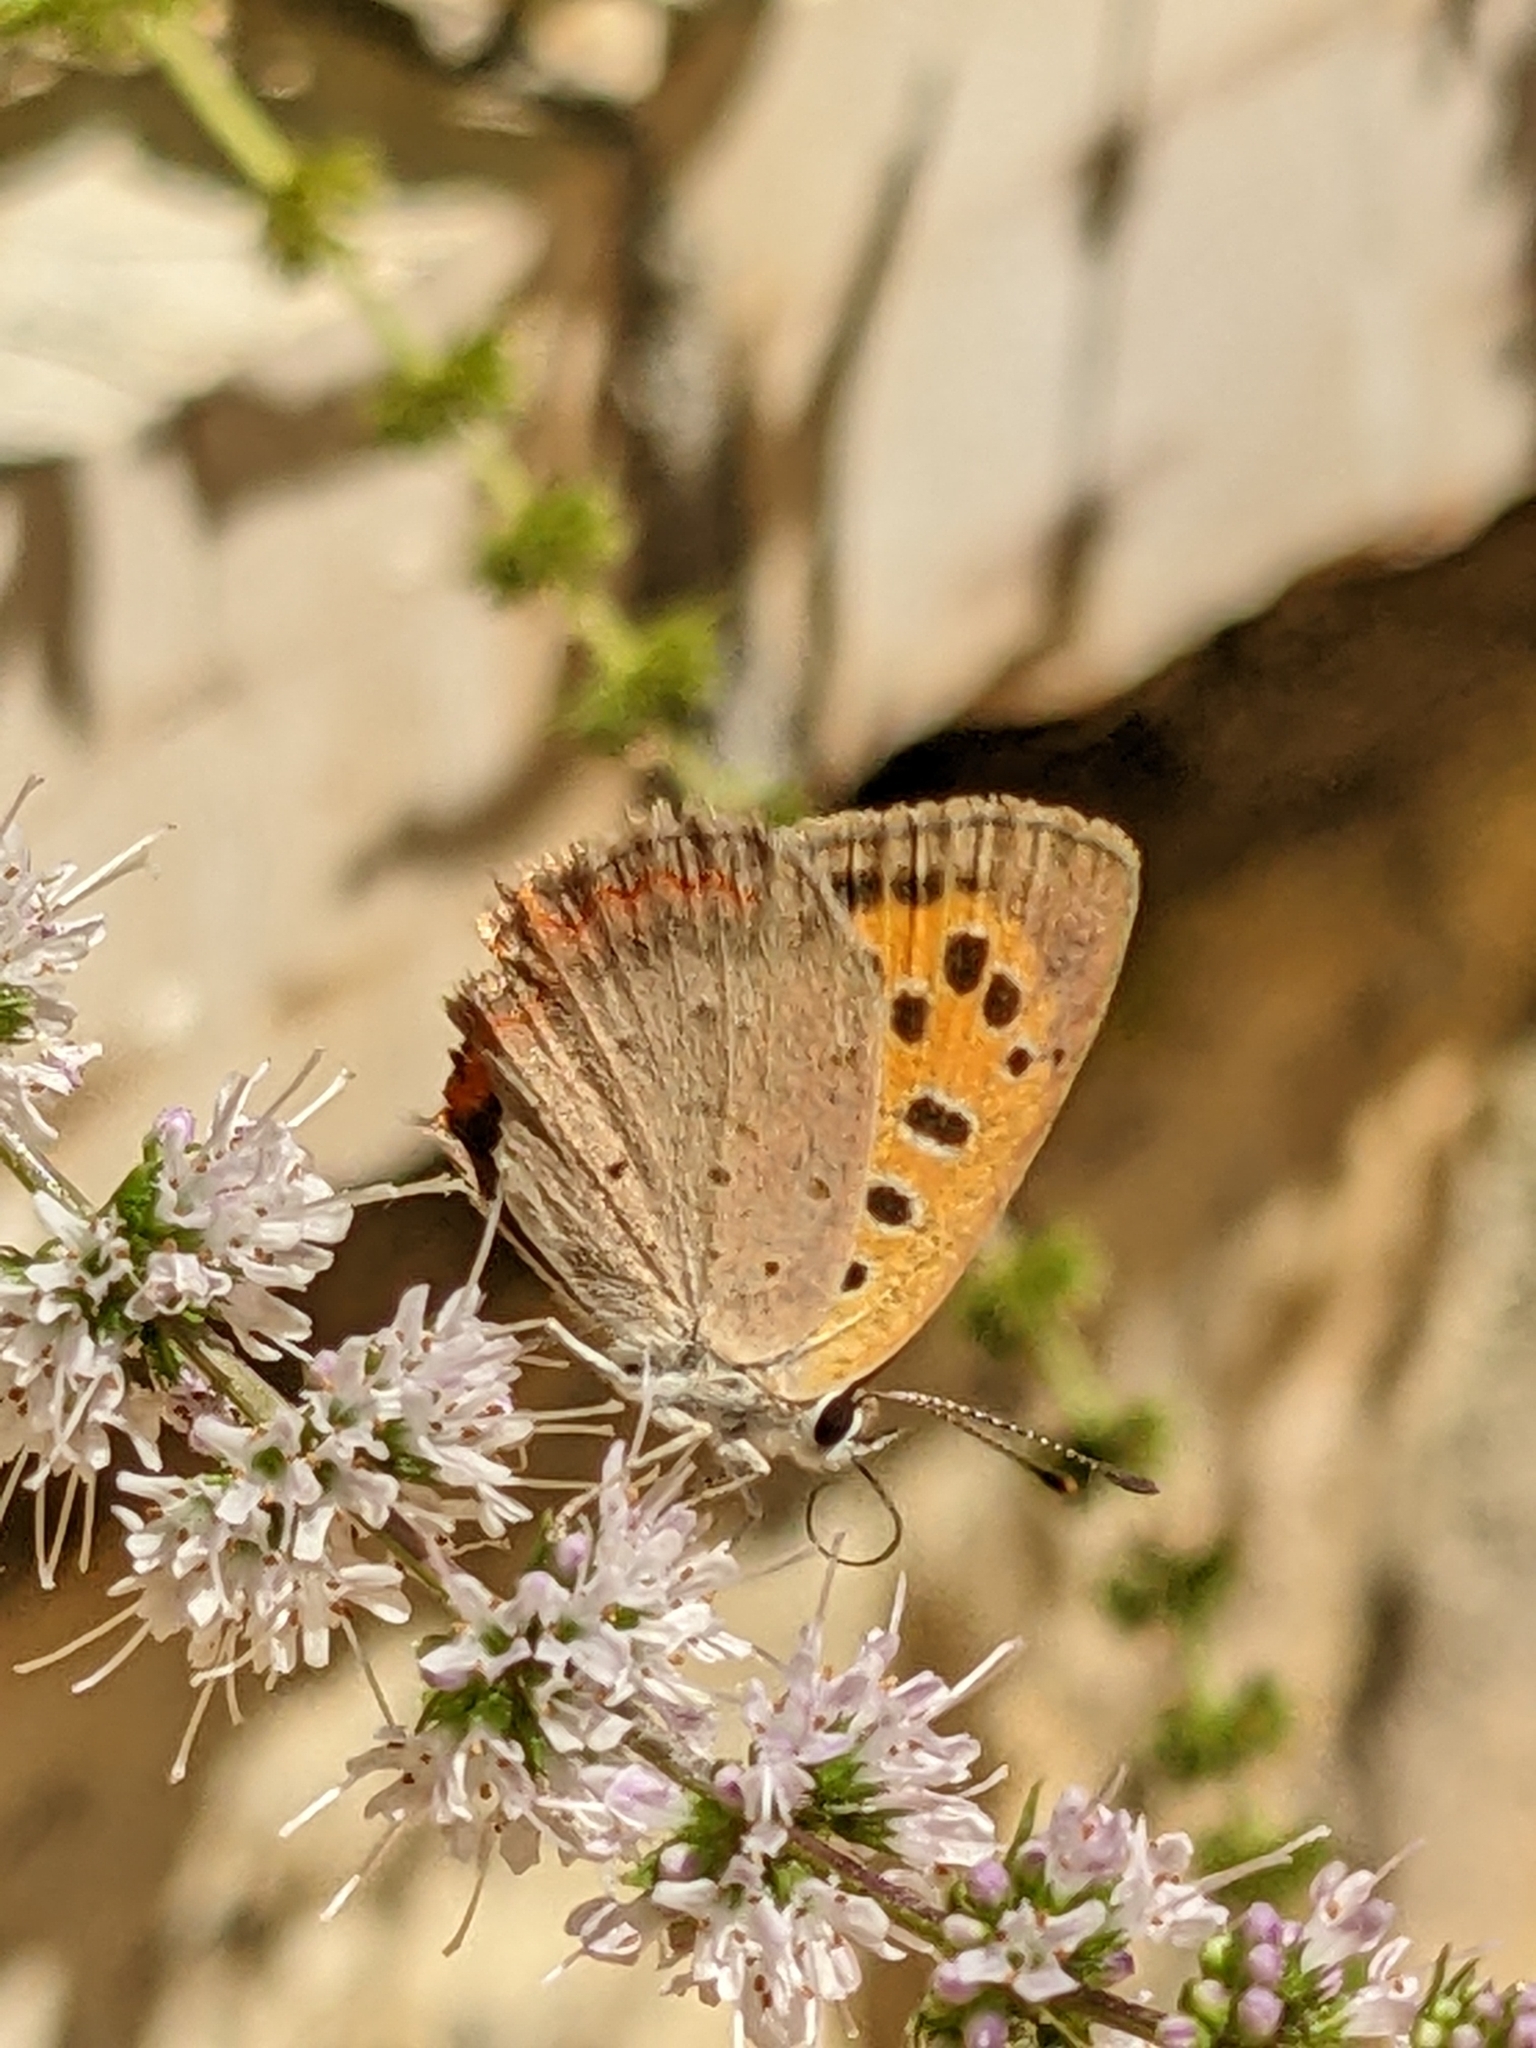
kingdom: Animalia
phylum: Arthropoda
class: Insecta
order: Lepidoptera
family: Lycaenidae
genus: Lycaena
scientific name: Lycaena phlaeas
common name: Small copper
